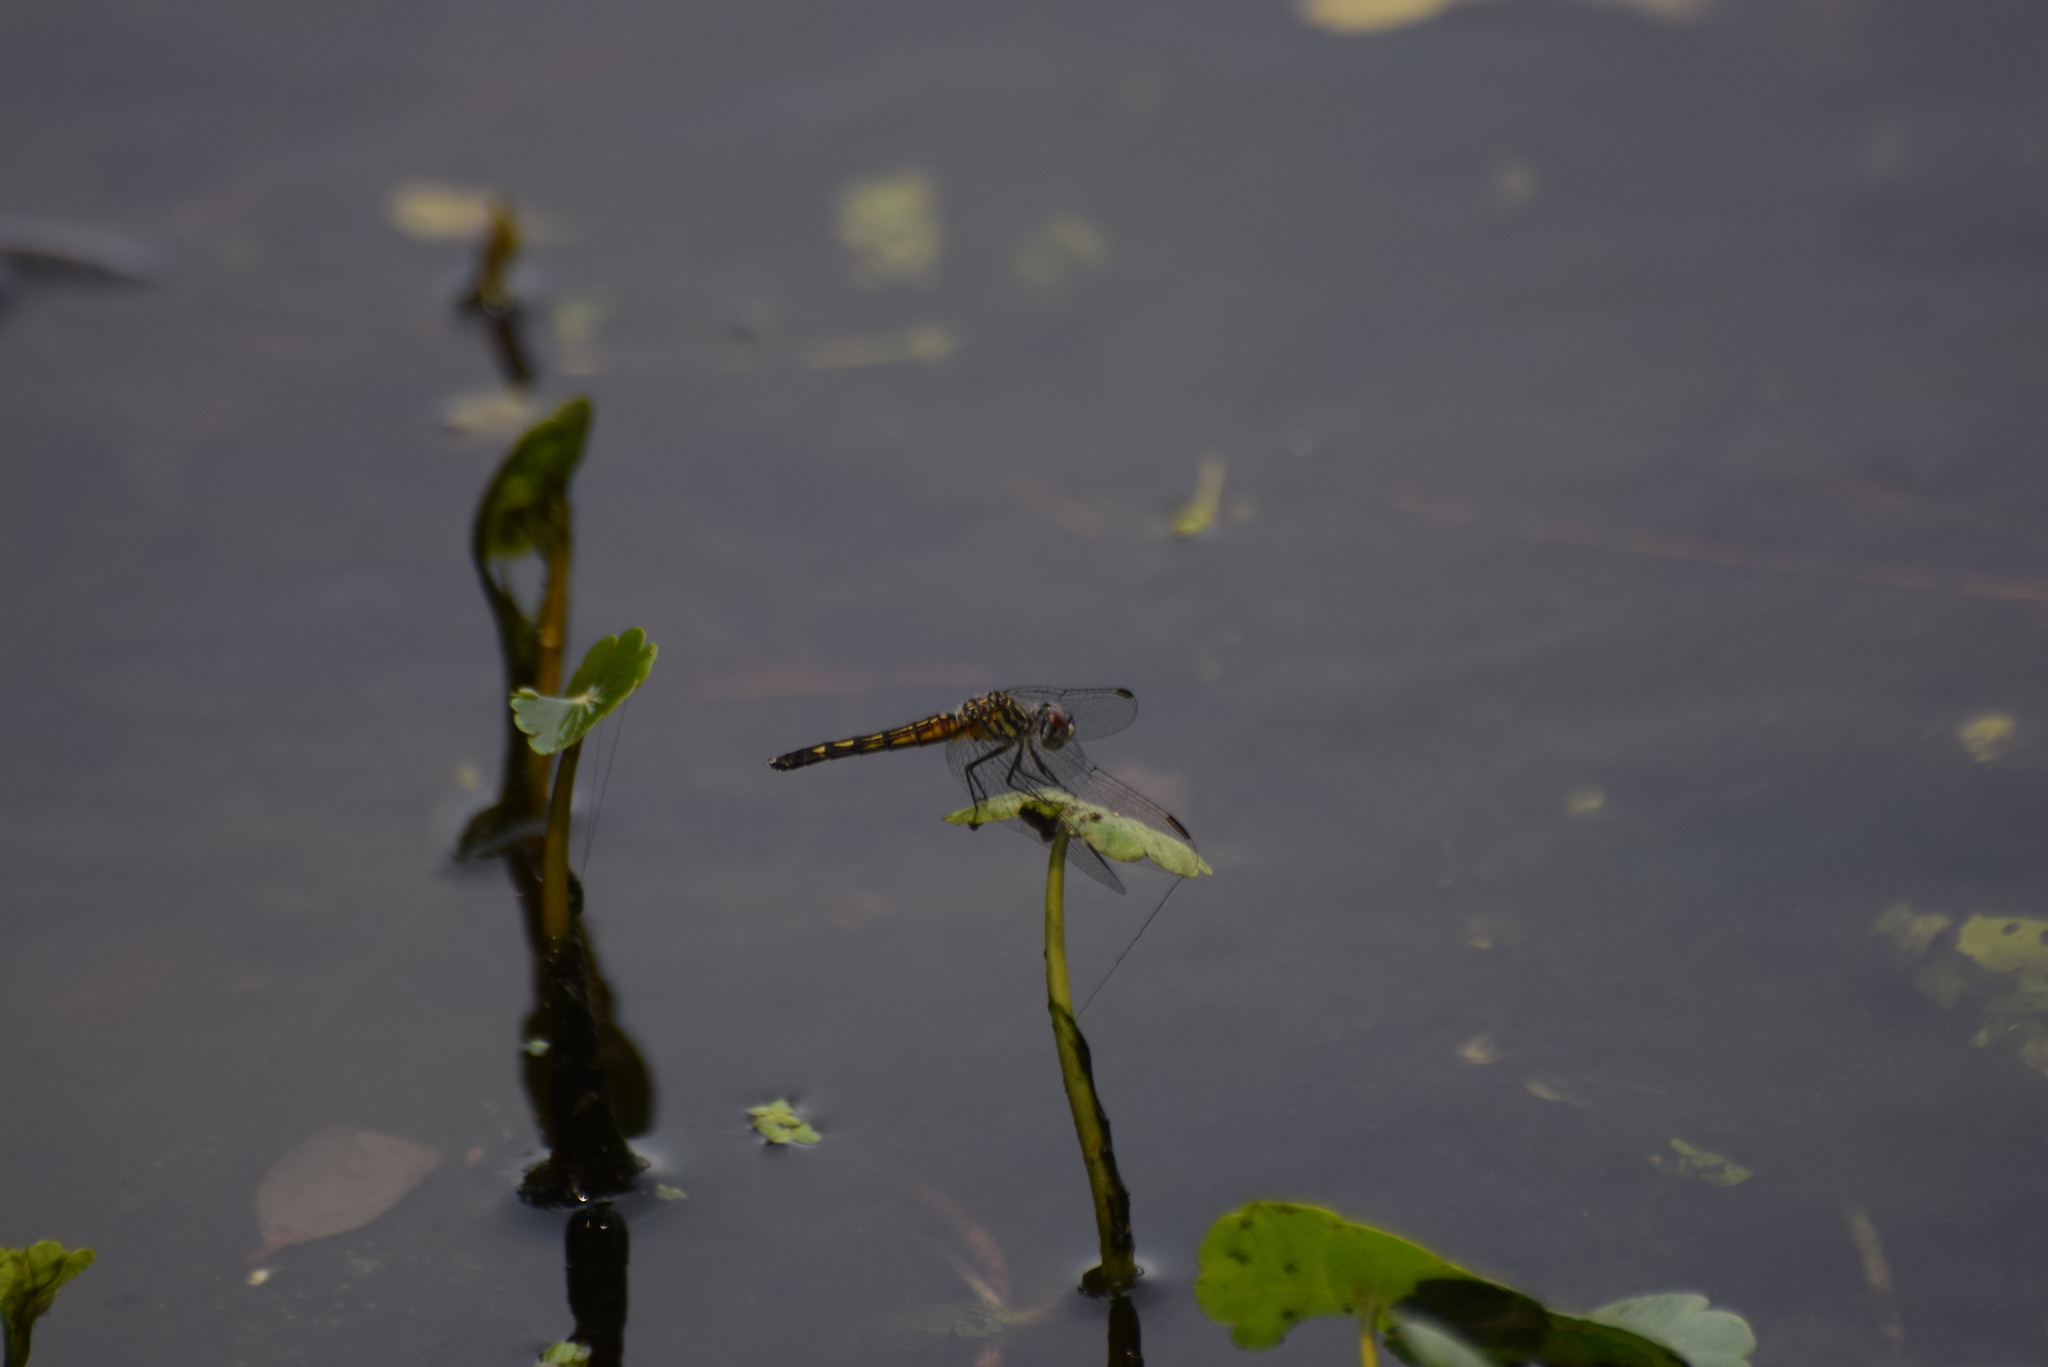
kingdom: Animalia
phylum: Arthropoda
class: Insecta
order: Odonata
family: Libellulidae
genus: Pachydiplax
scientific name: Pachydiplax longipennis
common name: Blue dasher
